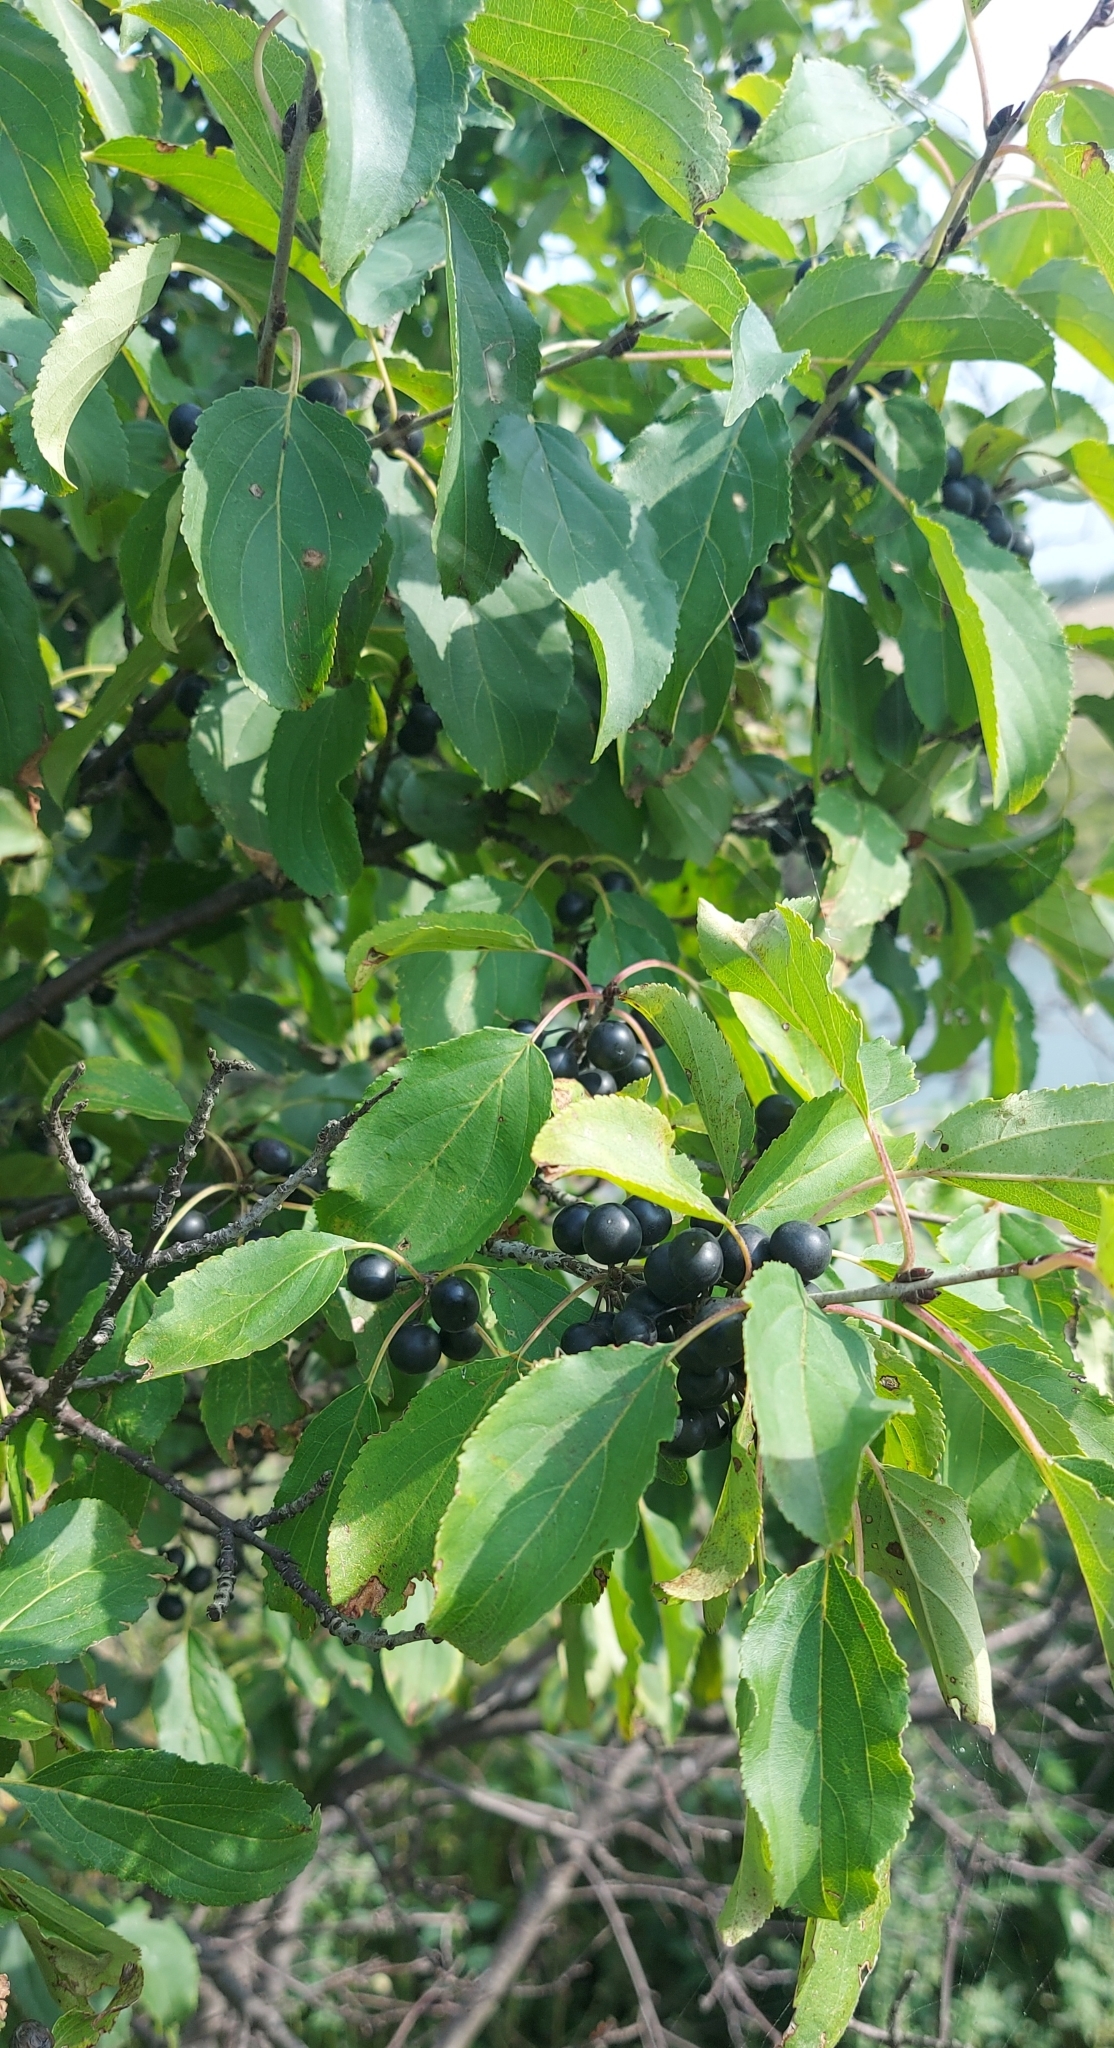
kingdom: Plantae
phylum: Tracheophyta
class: Magnoliopsida
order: Rosales
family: Rhamnaceae
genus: Rhamnus
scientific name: Rhamnus cathartica
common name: Common buckthorn
